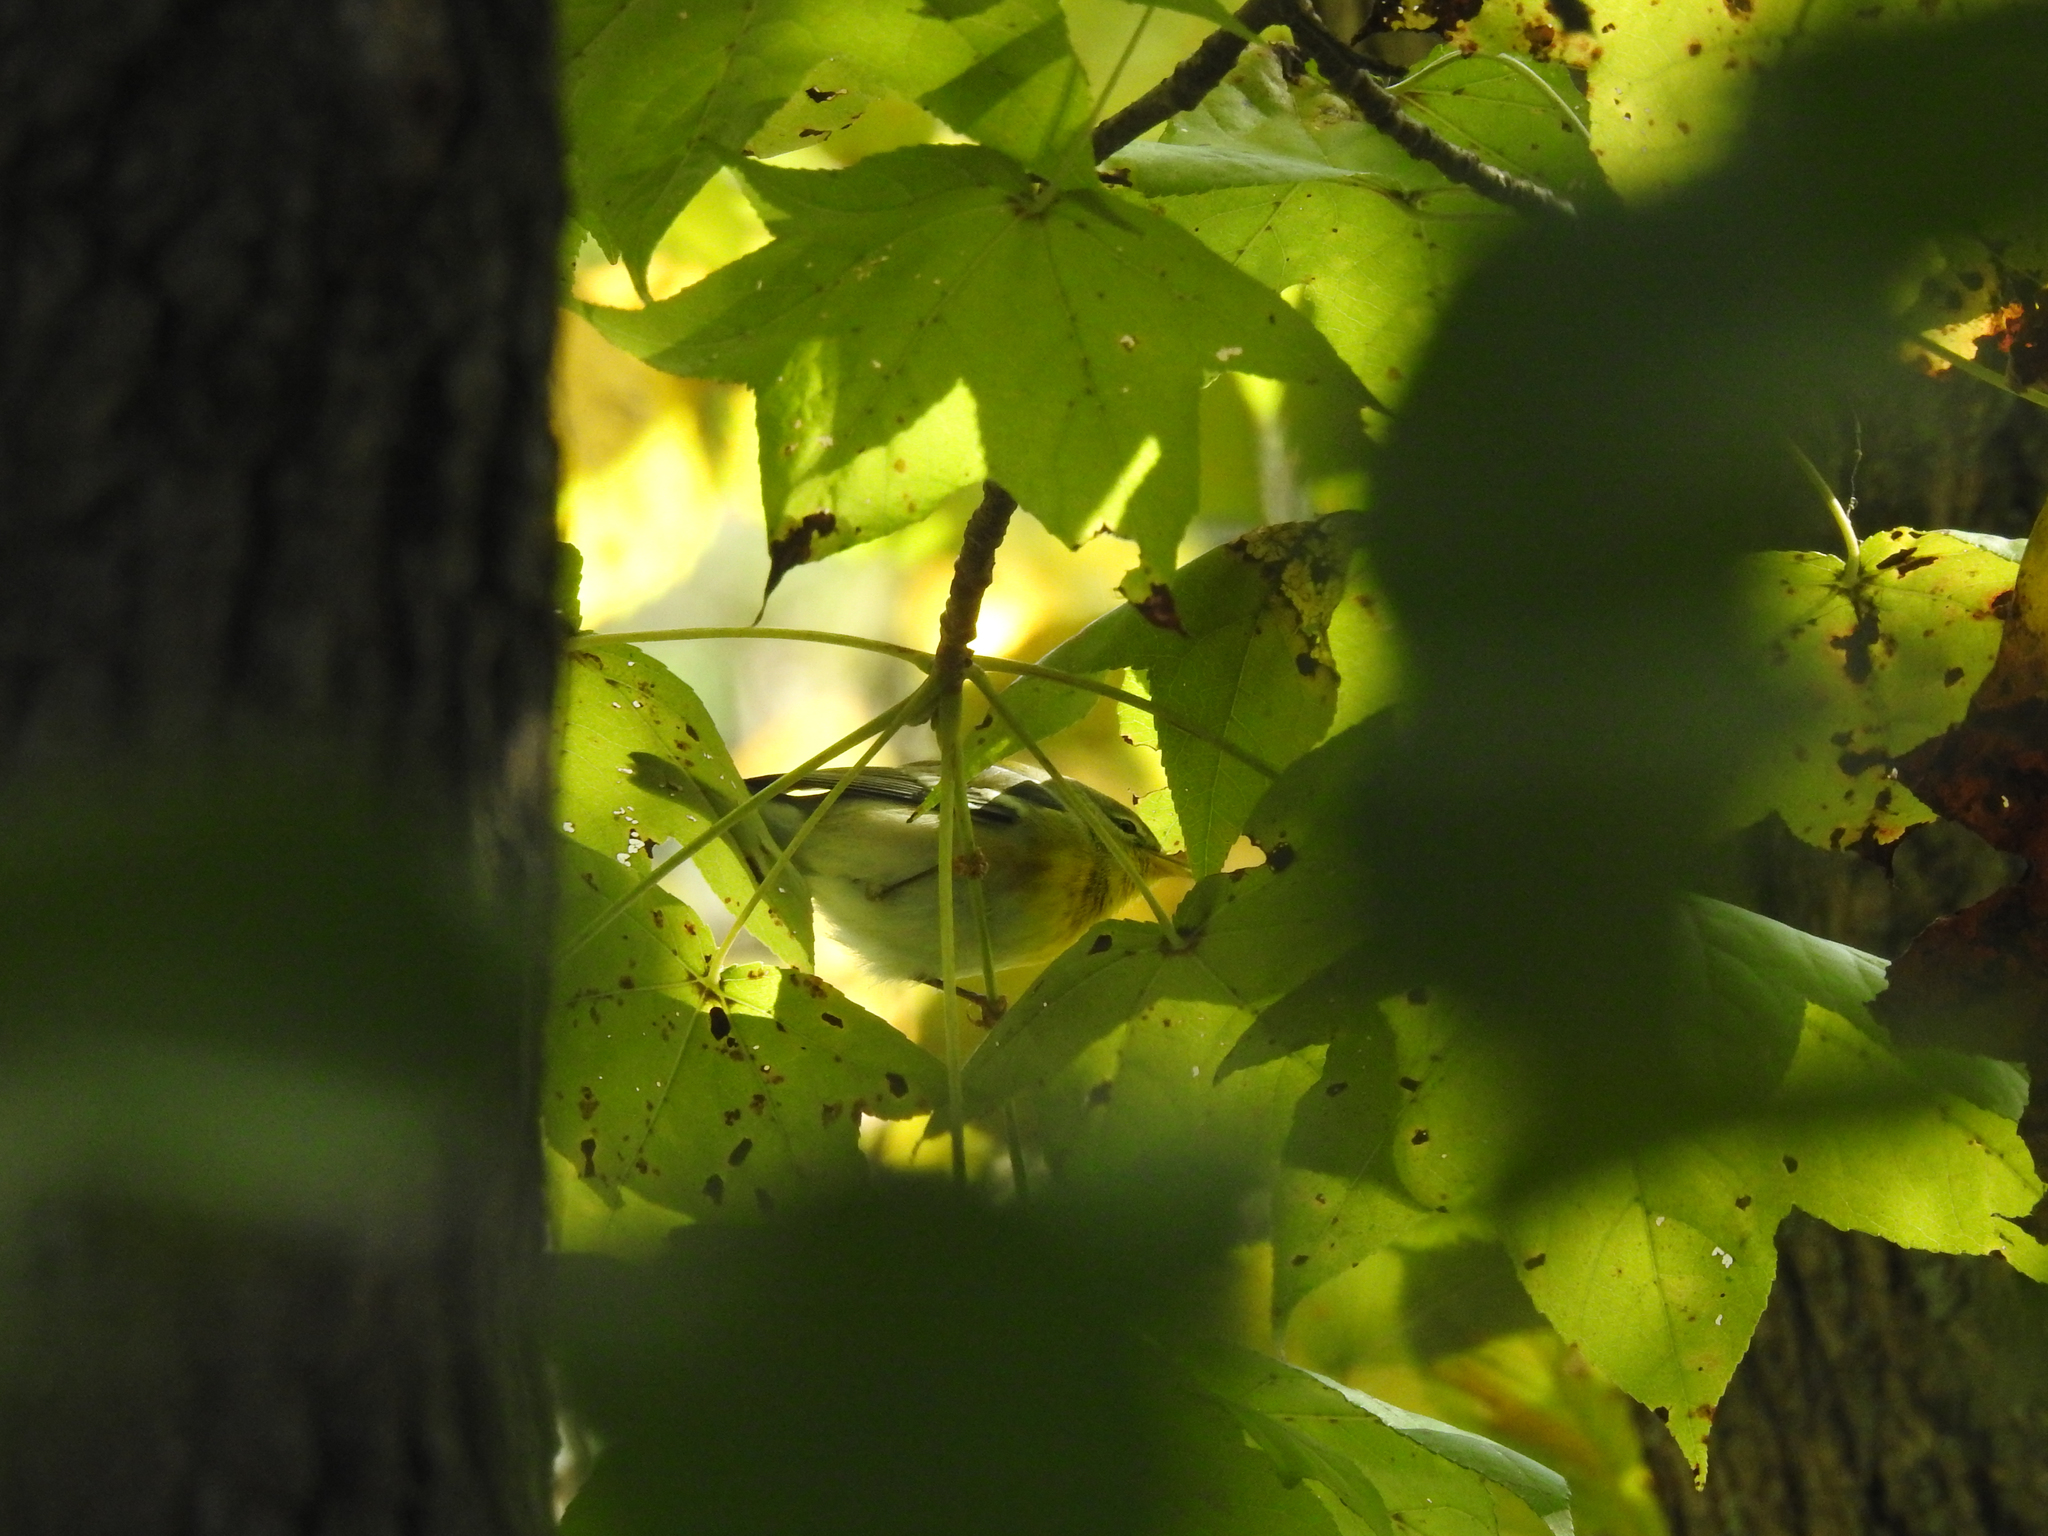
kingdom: Animalia
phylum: Chordata
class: Aves
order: Passeriformes
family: Parulidae
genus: Setophaga
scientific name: Setophaga americana
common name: Northern parula
